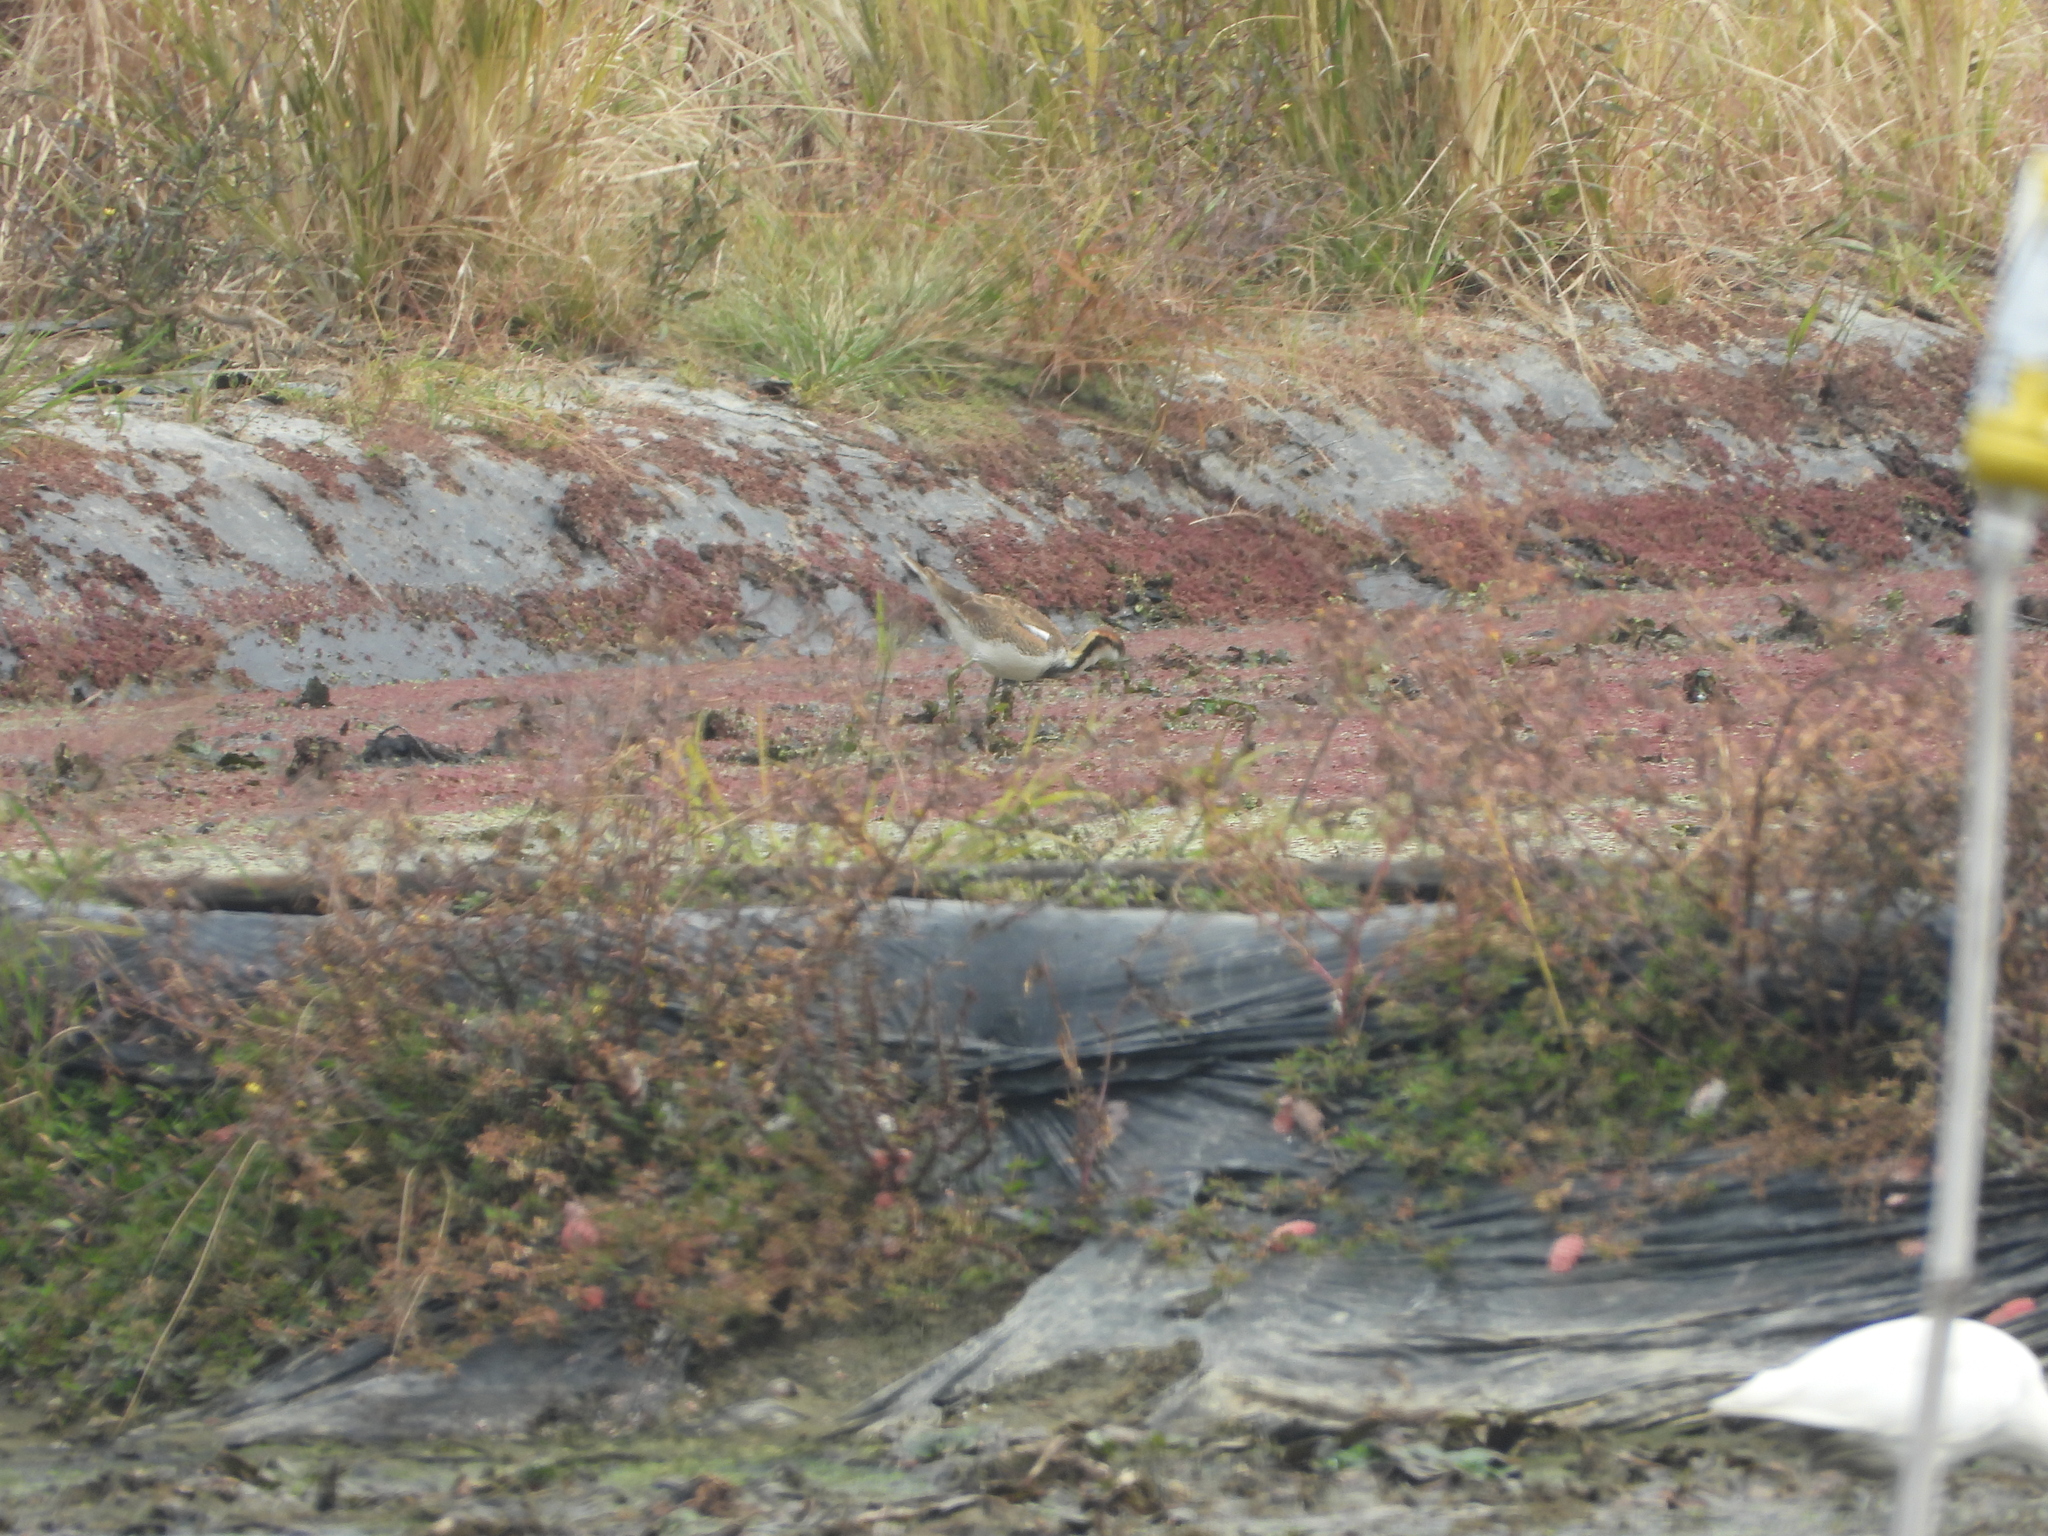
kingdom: Animalia
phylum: Chordata
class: Aves
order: Charadriiformes
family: Jacanidae
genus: Hydrophasianus
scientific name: Hydrophasianus chirurgus
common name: Pheasant-tailed jacana
